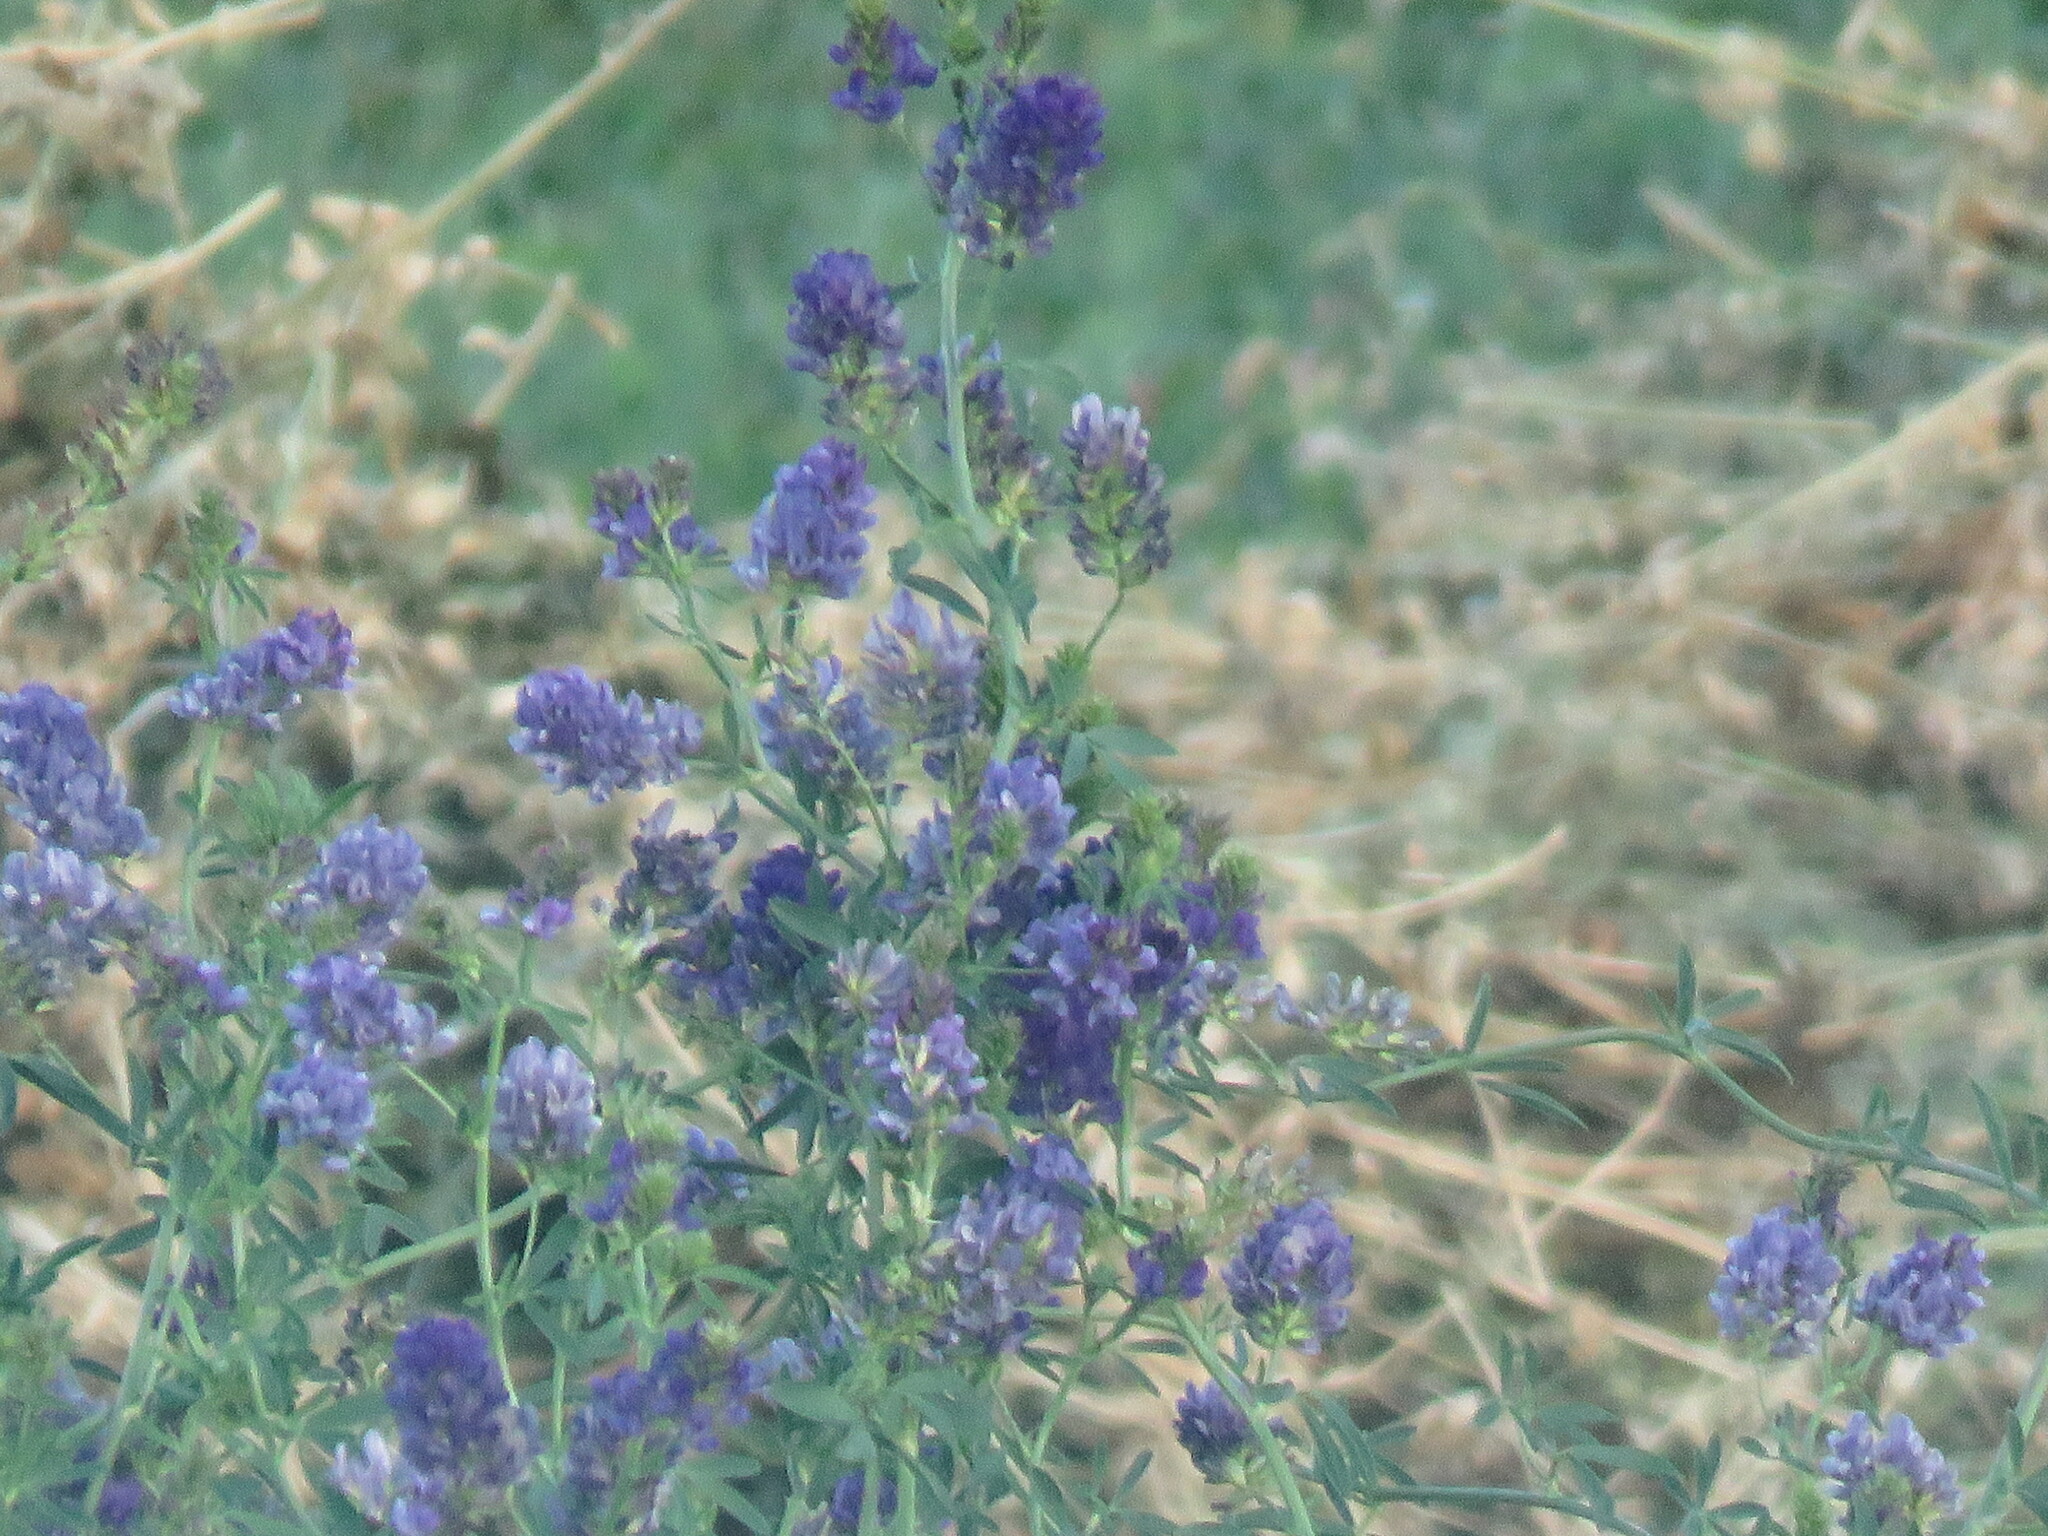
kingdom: Plantae
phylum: Tracheophyta
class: Magnoliopsida
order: Fabales
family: Fabaceae
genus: Medicago
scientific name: Medicago sativa
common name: Alfalfa
